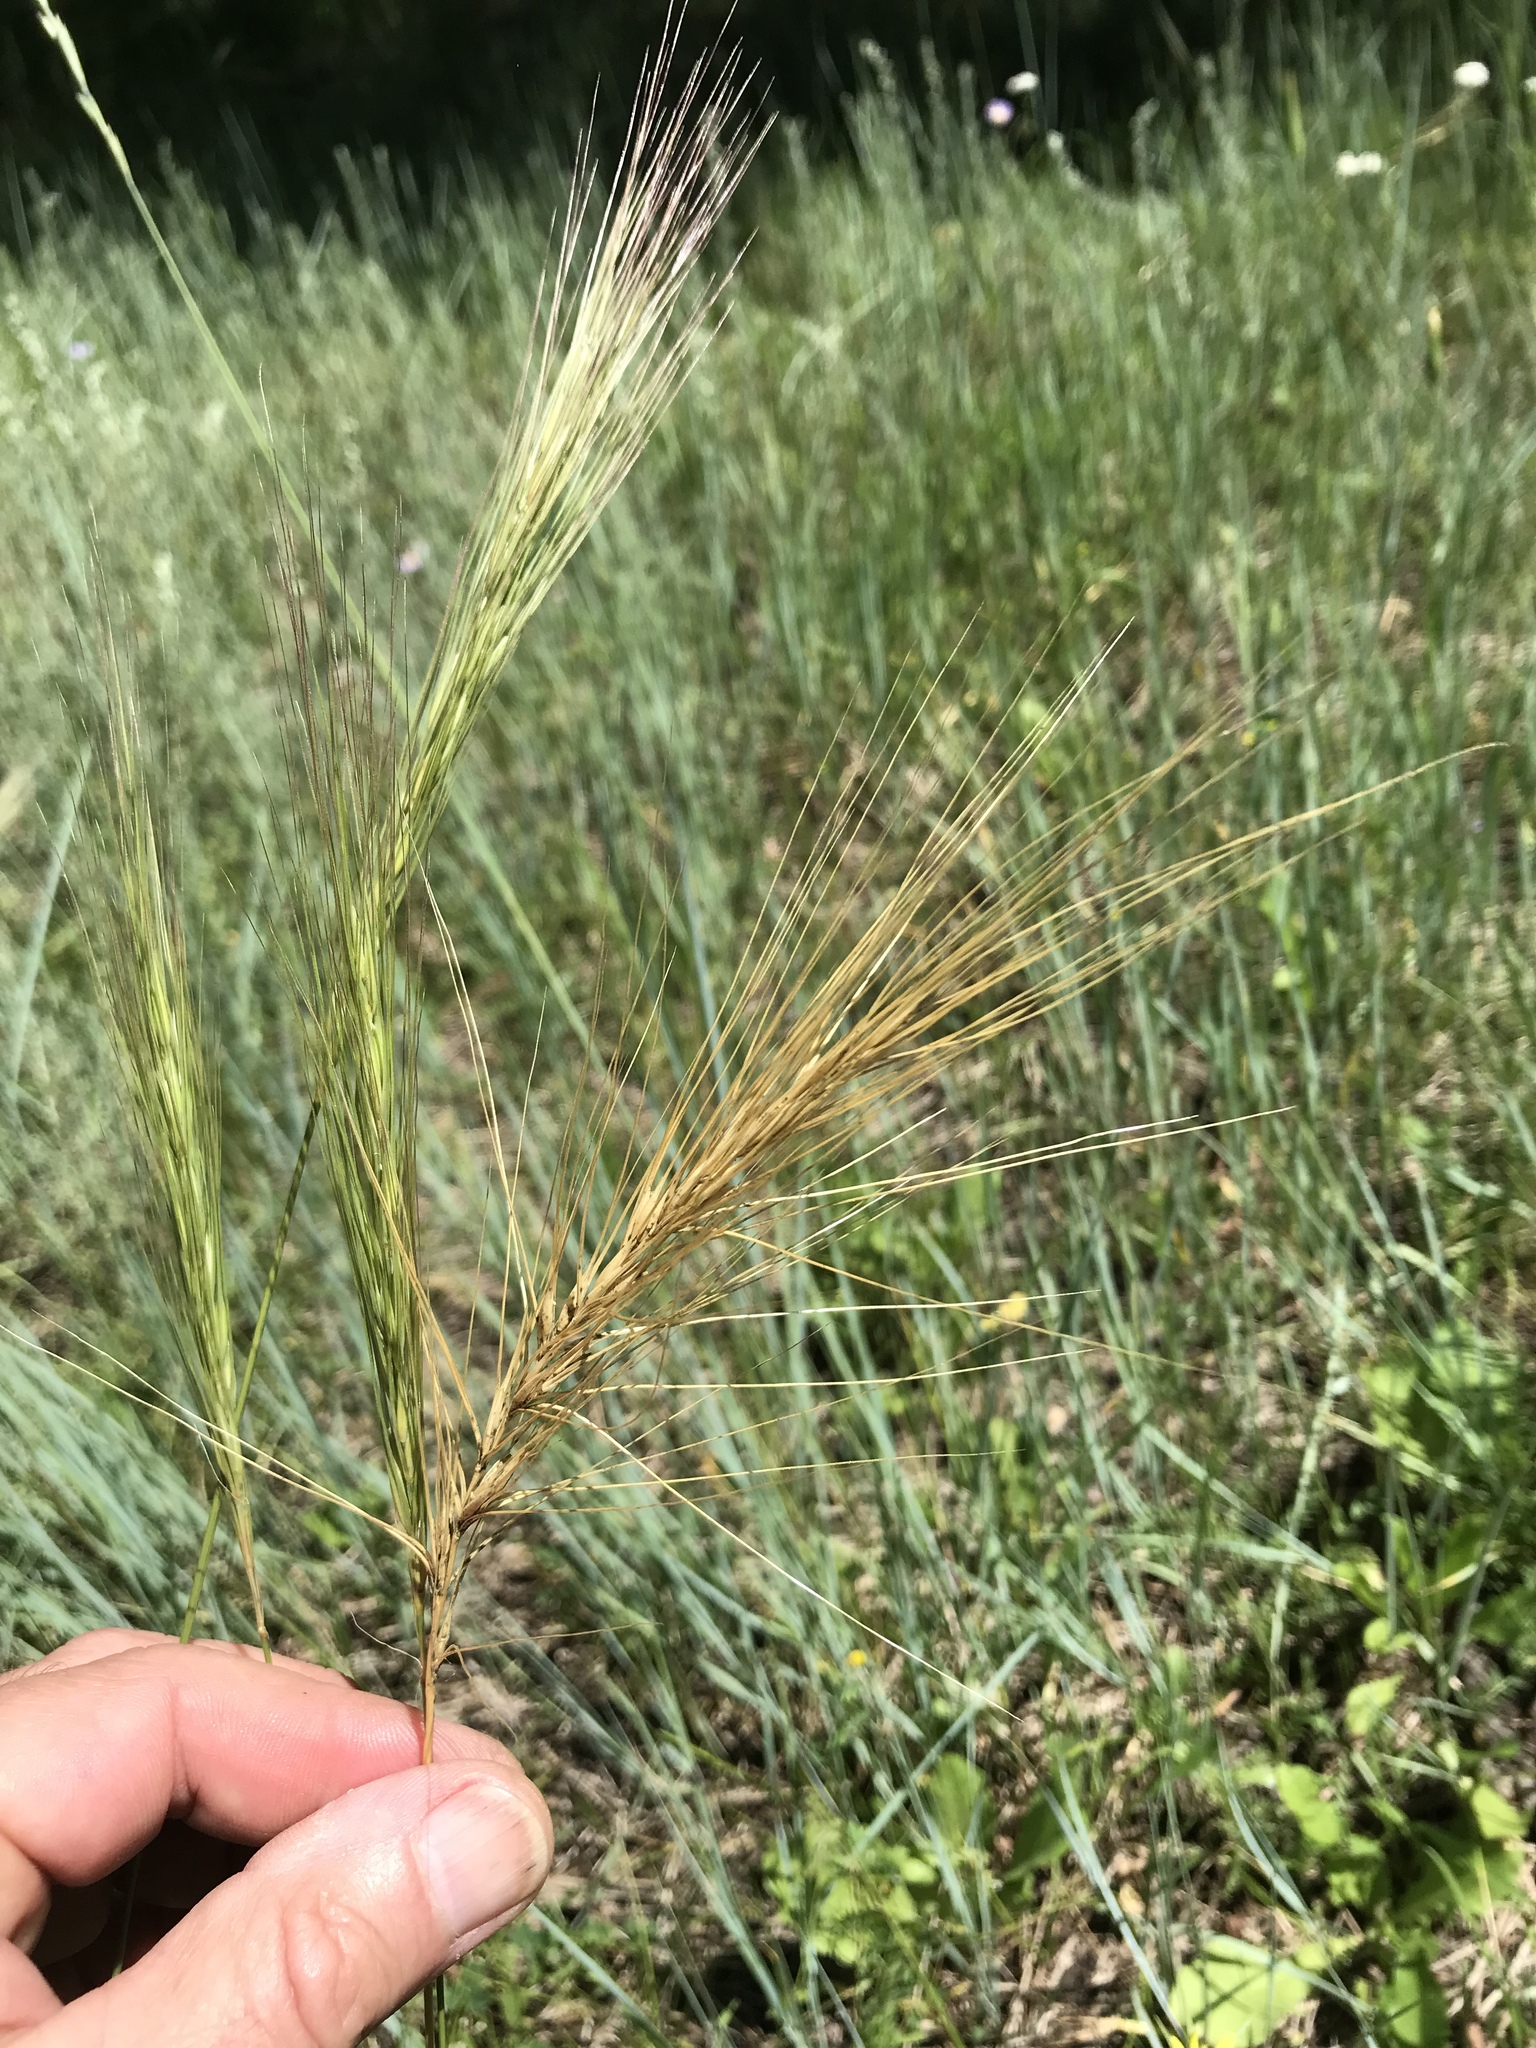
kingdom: Plantae
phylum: Tracheophyta
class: Liliopsida
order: Poales
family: Poaceae
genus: Elymus
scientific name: Elymus canadensis
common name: Canada wild rye
